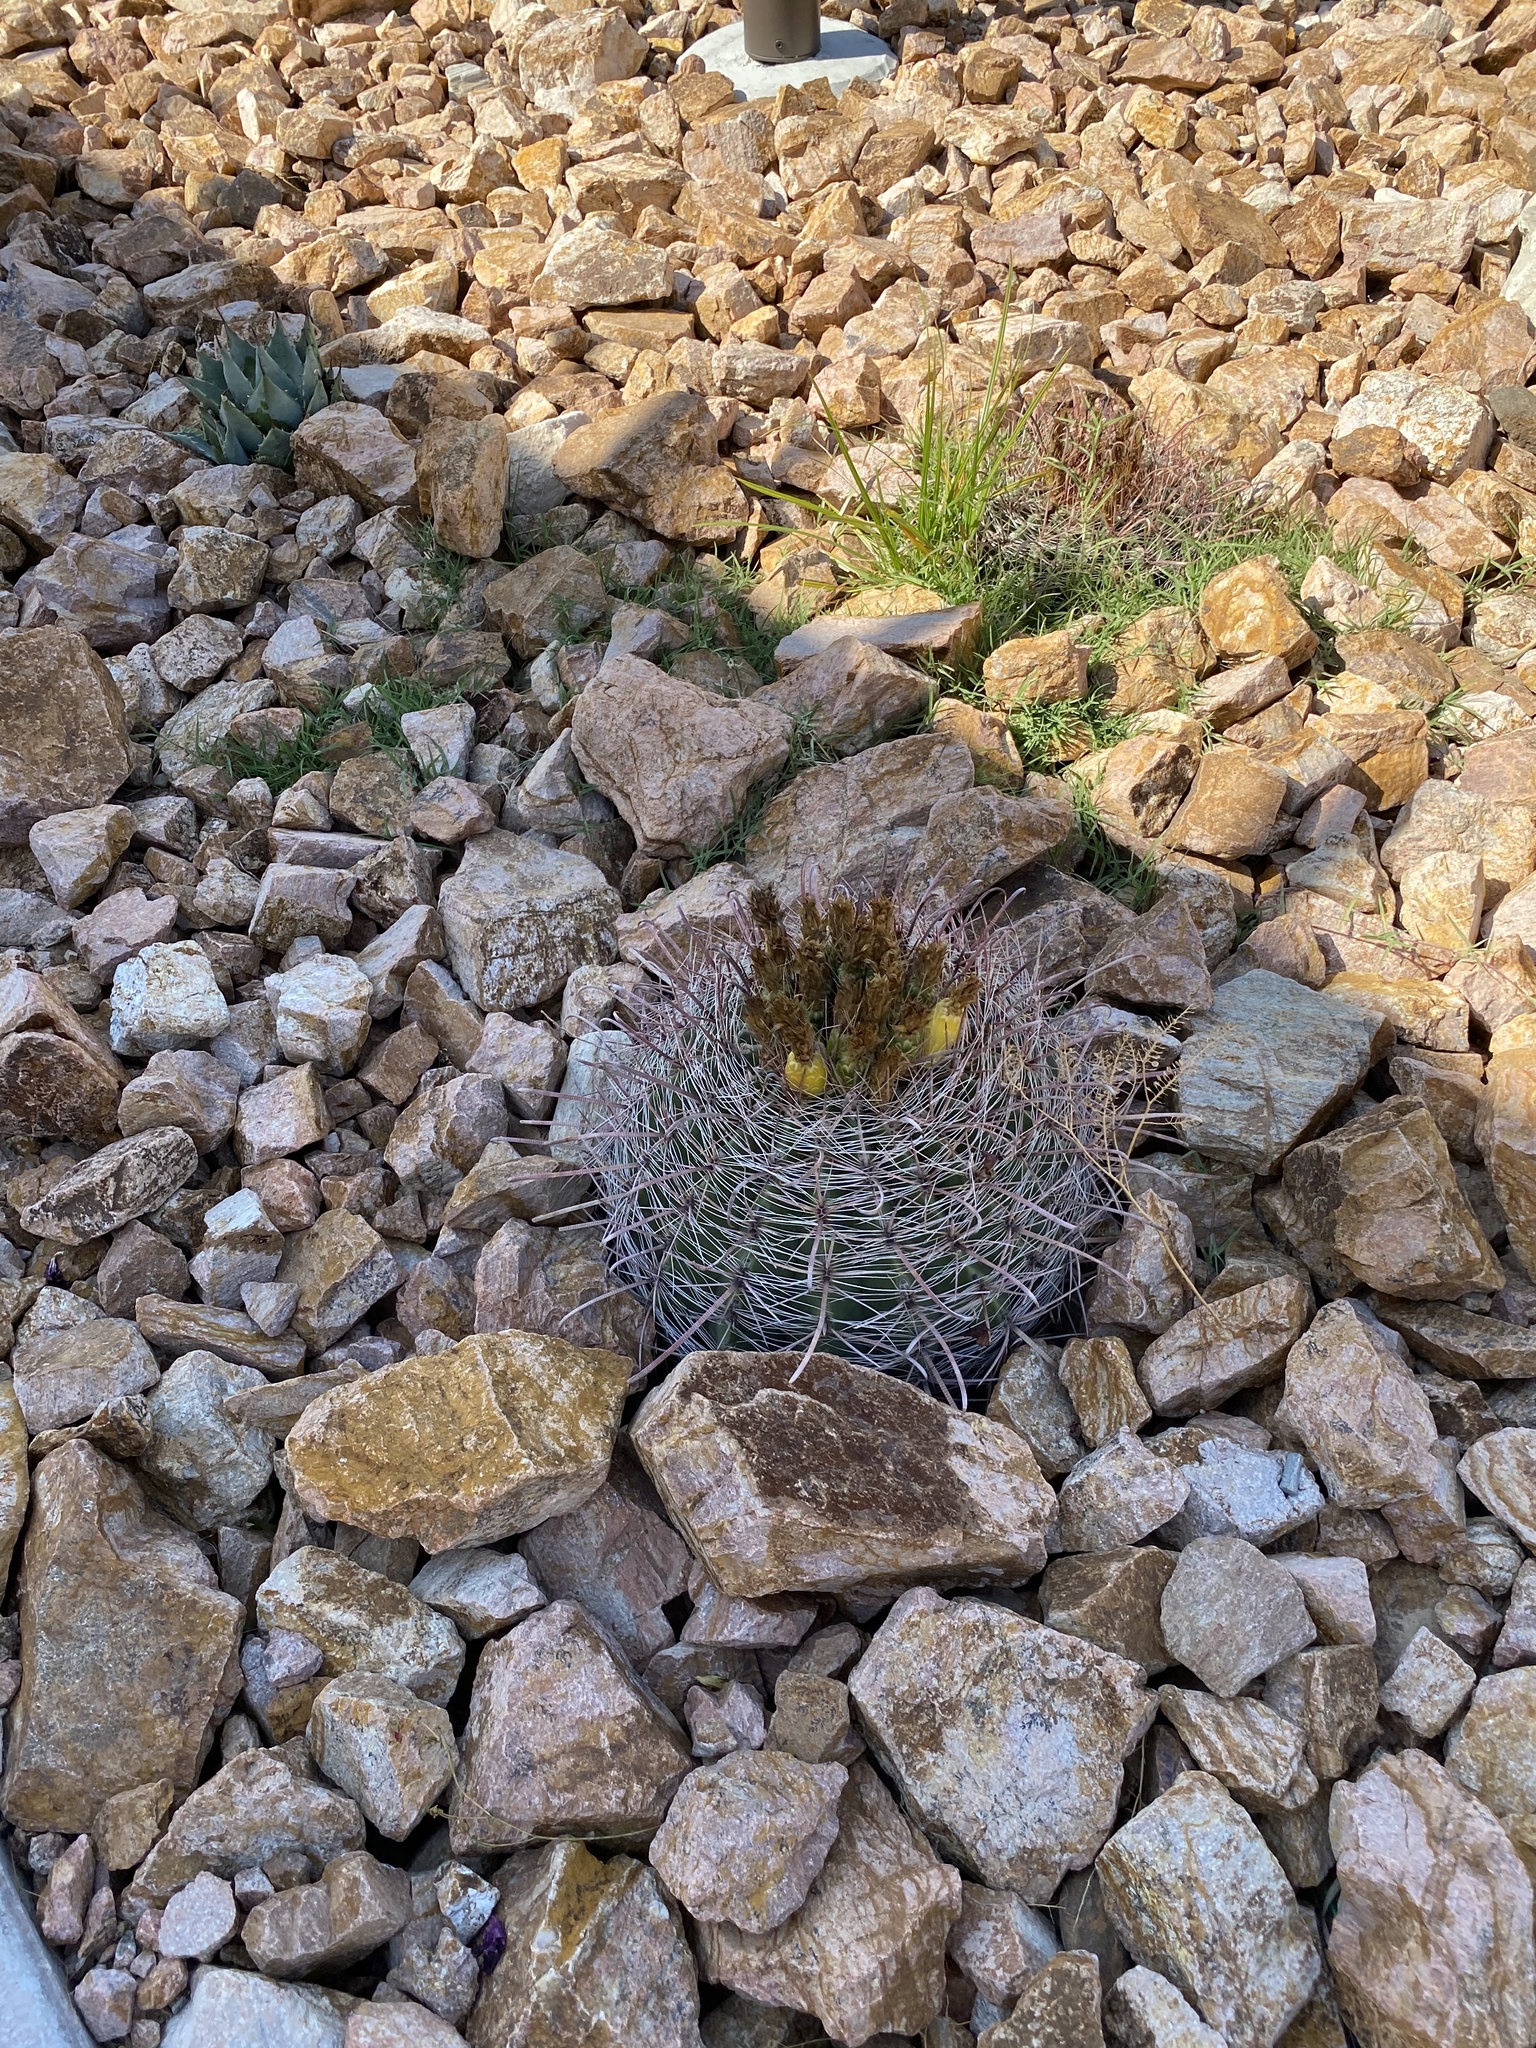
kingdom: Animalia
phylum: Chordata
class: Aves
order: Passeriformes
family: Sittidae
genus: Sitta
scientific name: Sitta carolinensis
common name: White-breasted nuthatch
